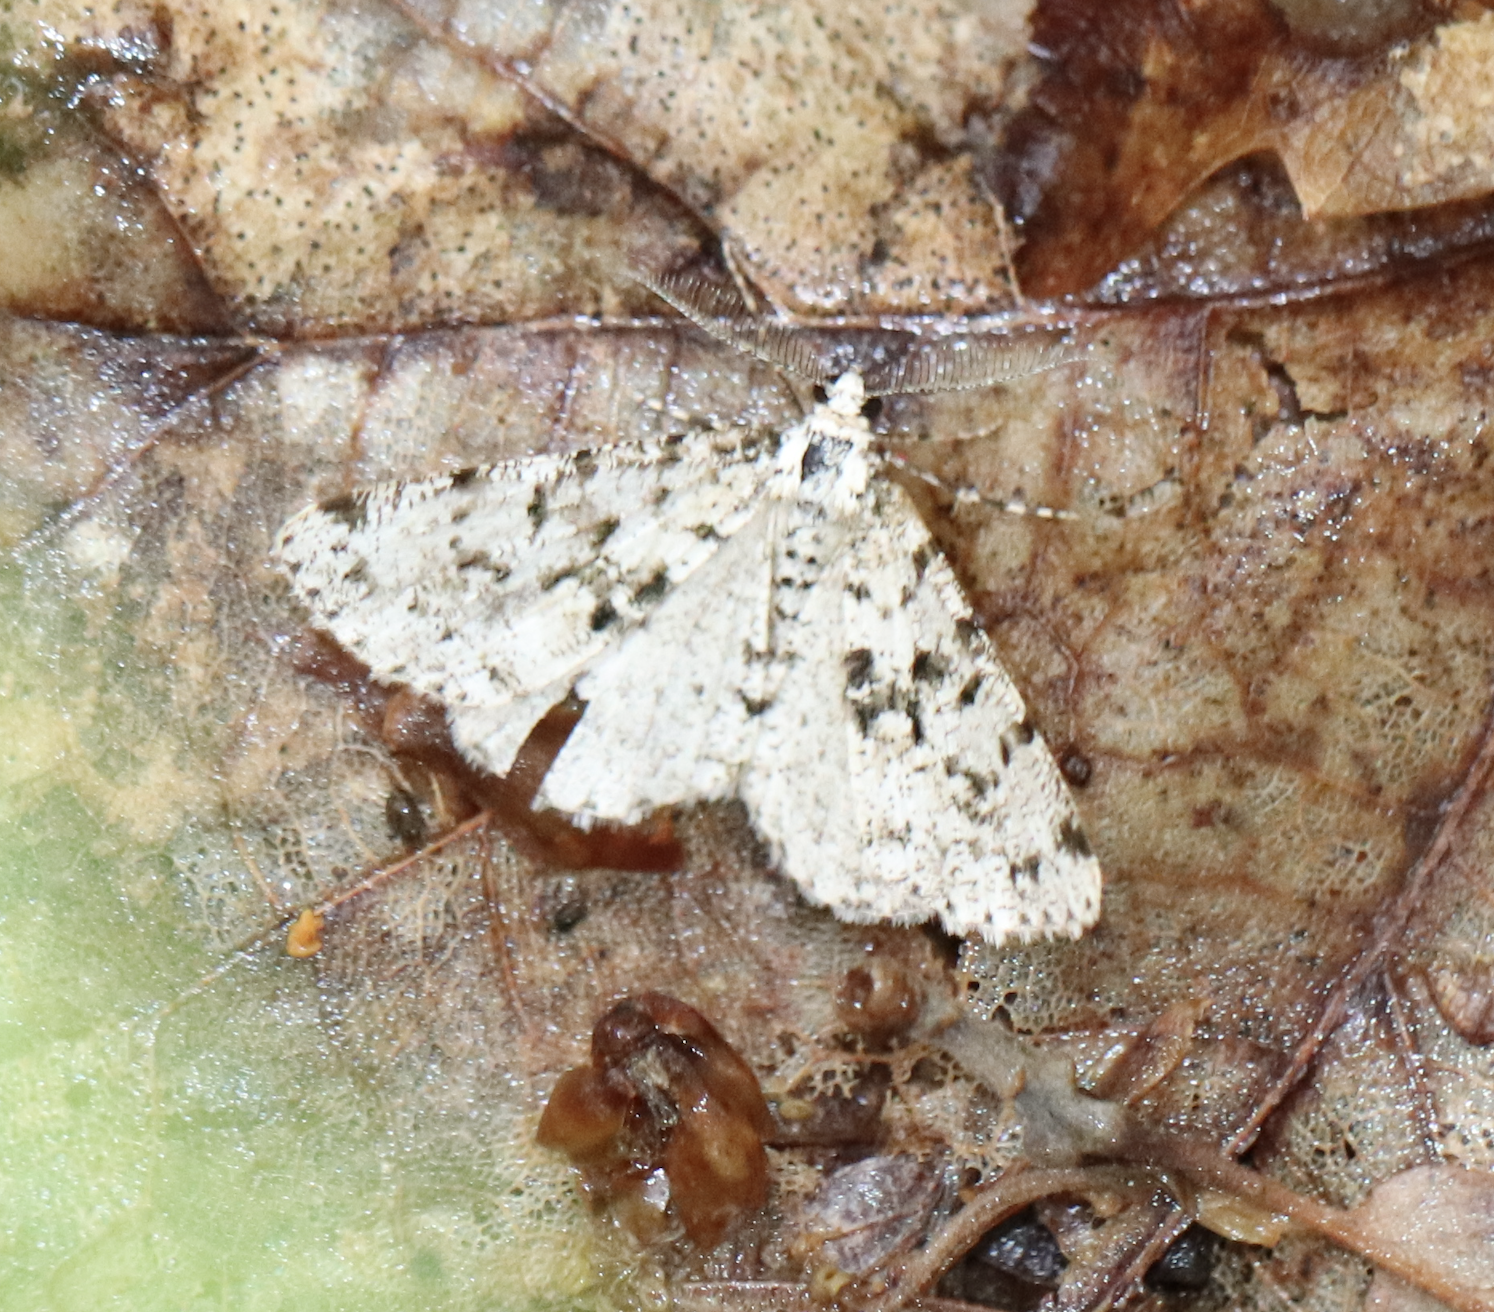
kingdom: Animalia
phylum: Arthropoda
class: Insecta
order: Lepidoptera
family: Geometridae
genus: Fagivorina
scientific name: Fagivorina arenaria
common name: Speckled beauty
